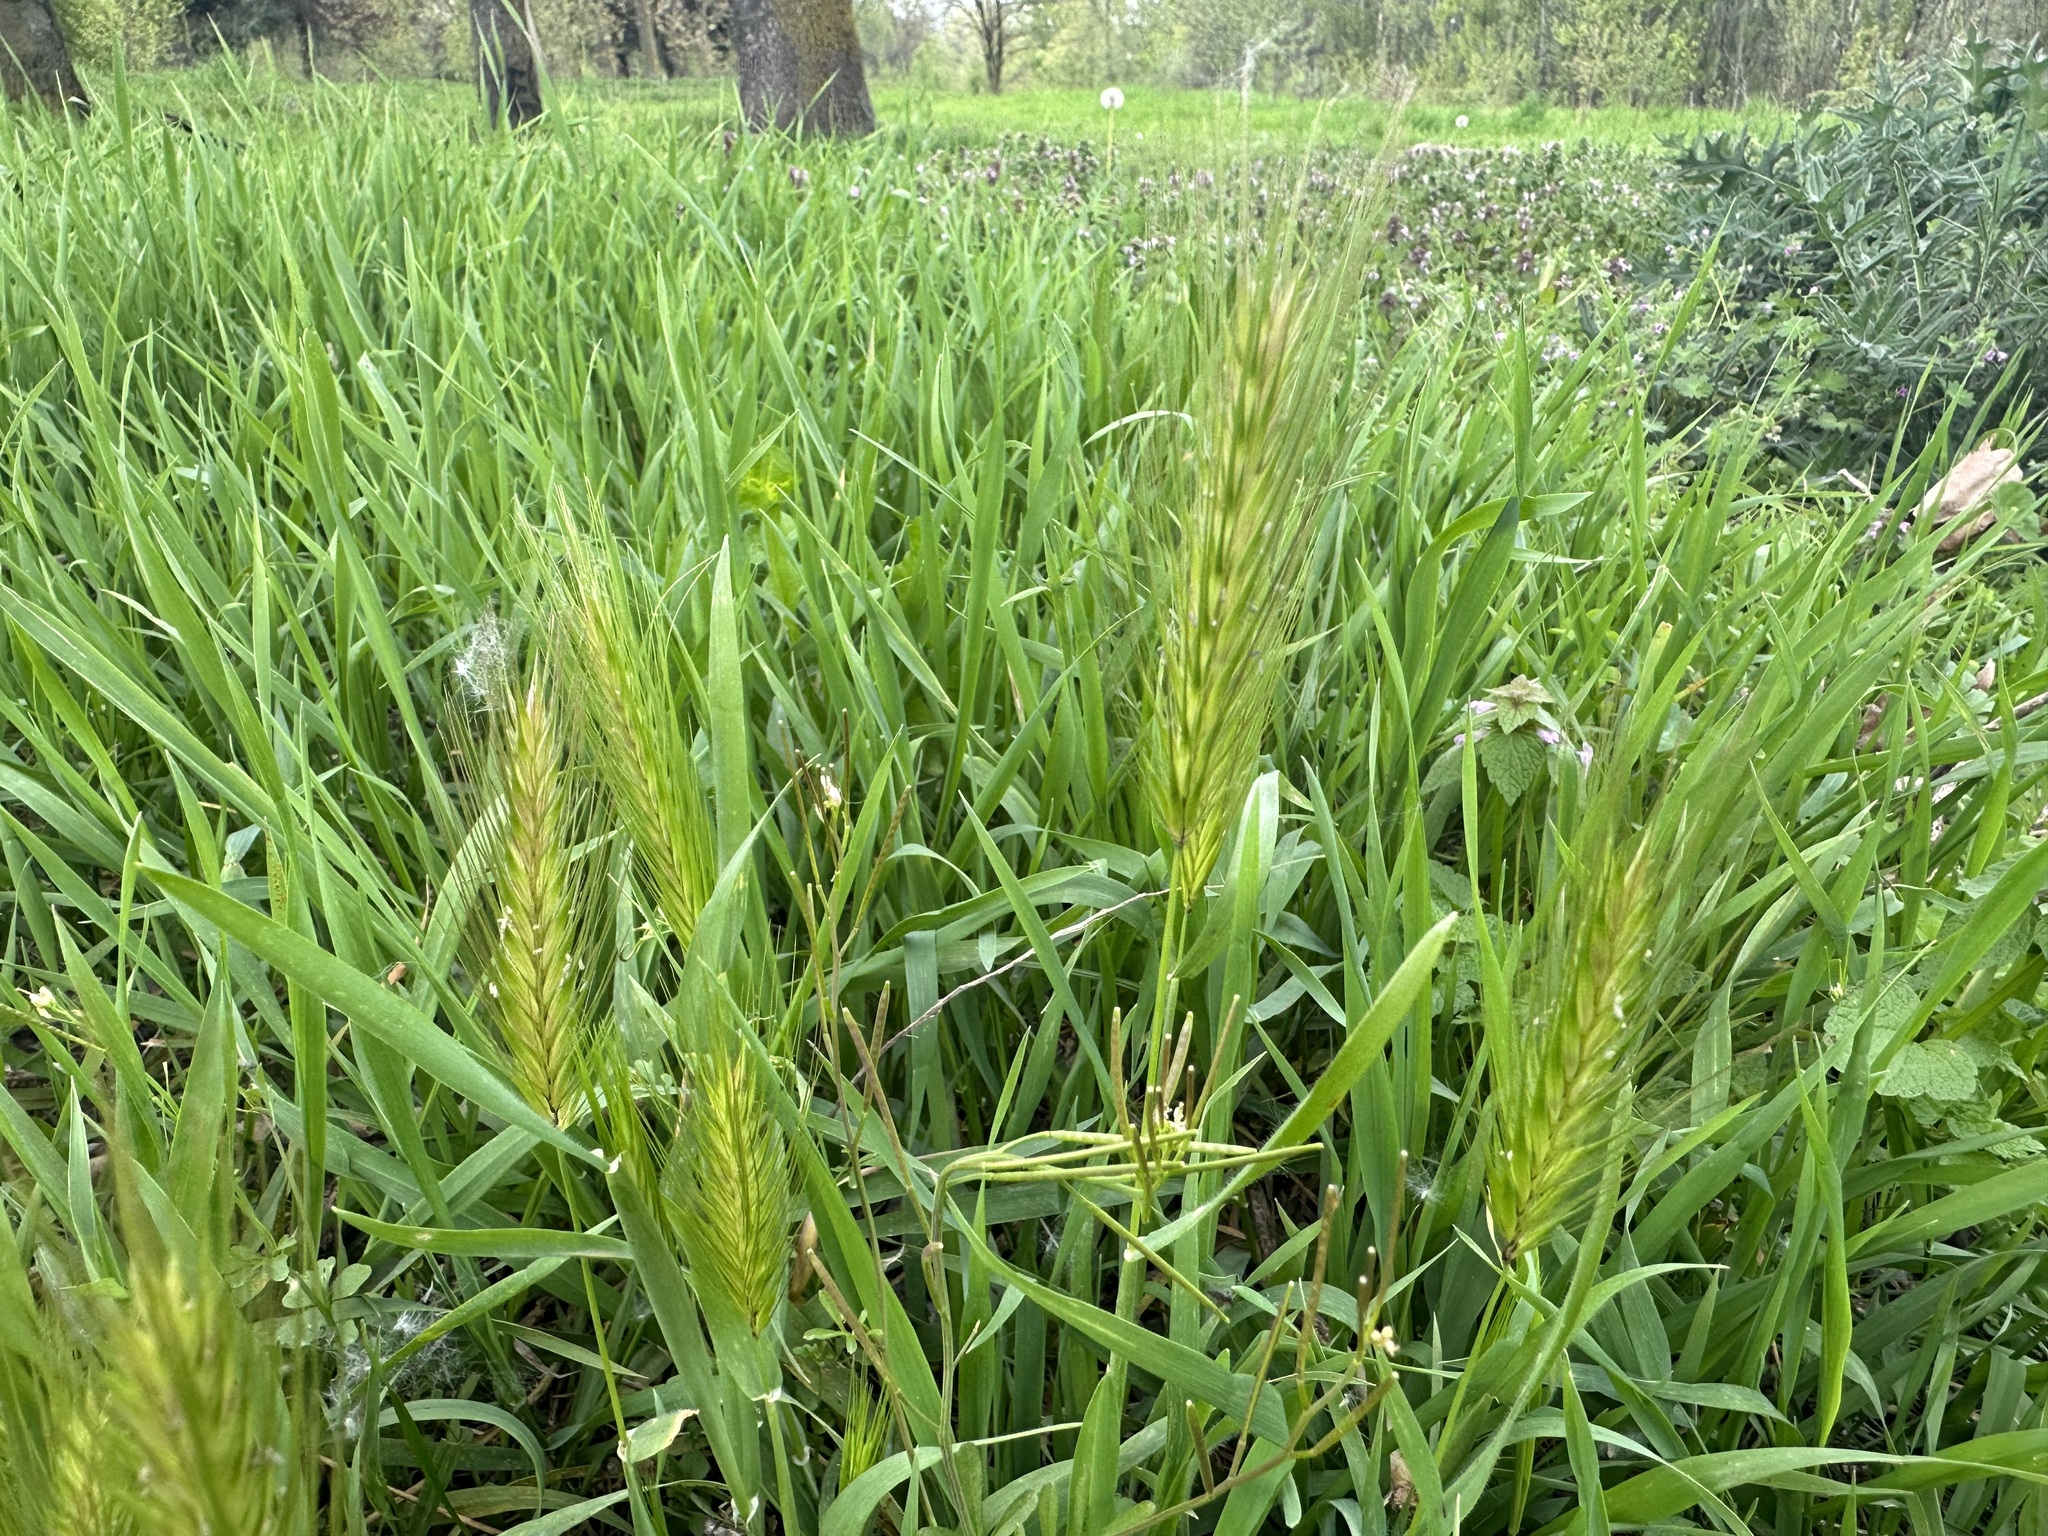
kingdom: Plantae
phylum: Tracheophyta
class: Liliopsida
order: Poales
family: Poaceae
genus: Hordeum
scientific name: Hordeum murinum
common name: Wall barley
